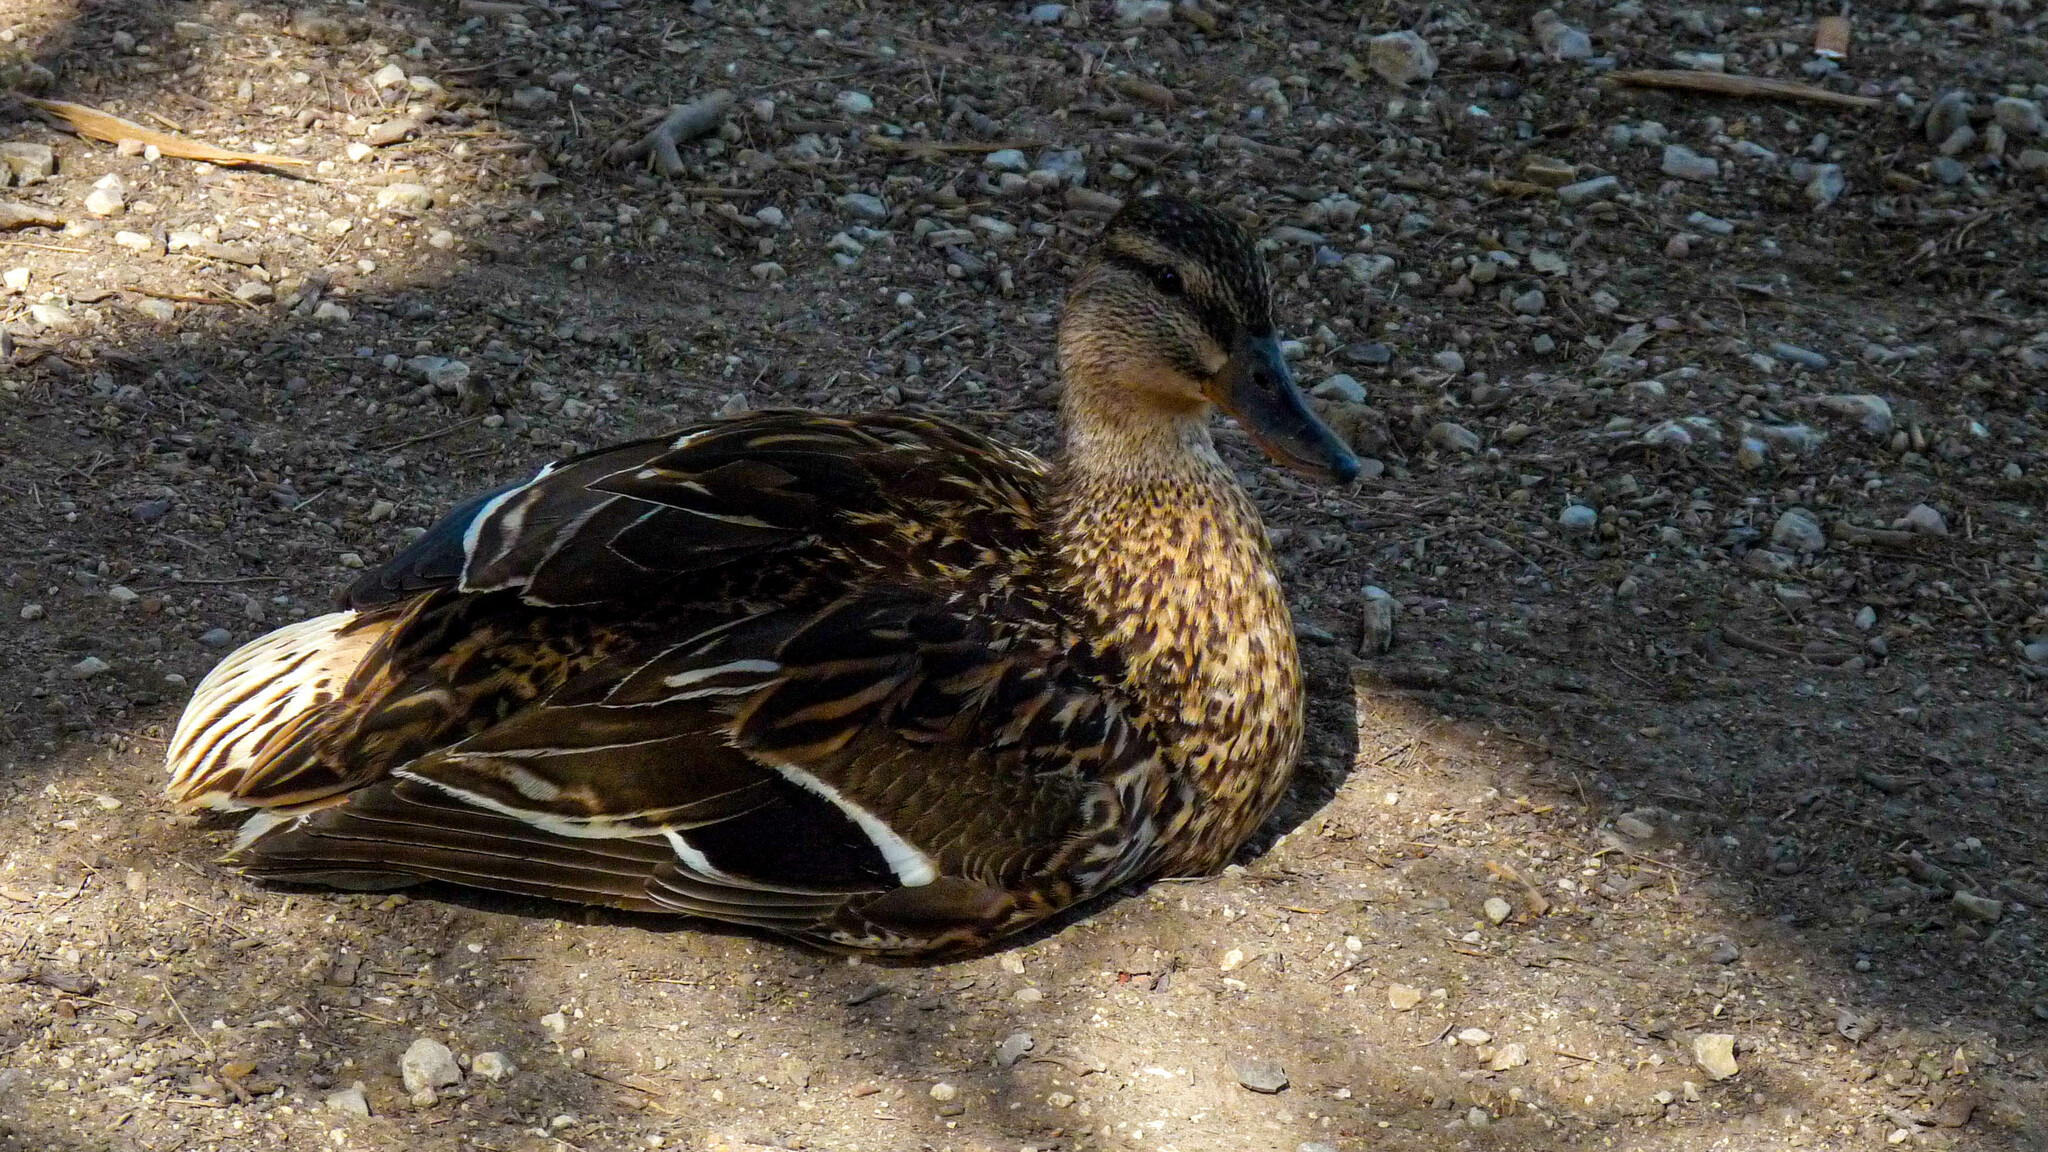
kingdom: Animalia
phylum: Chordata
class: Aves
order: Anseriformes
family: Anatidae
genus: Anas
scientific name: Anas platyrhynchos
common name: Mallard
